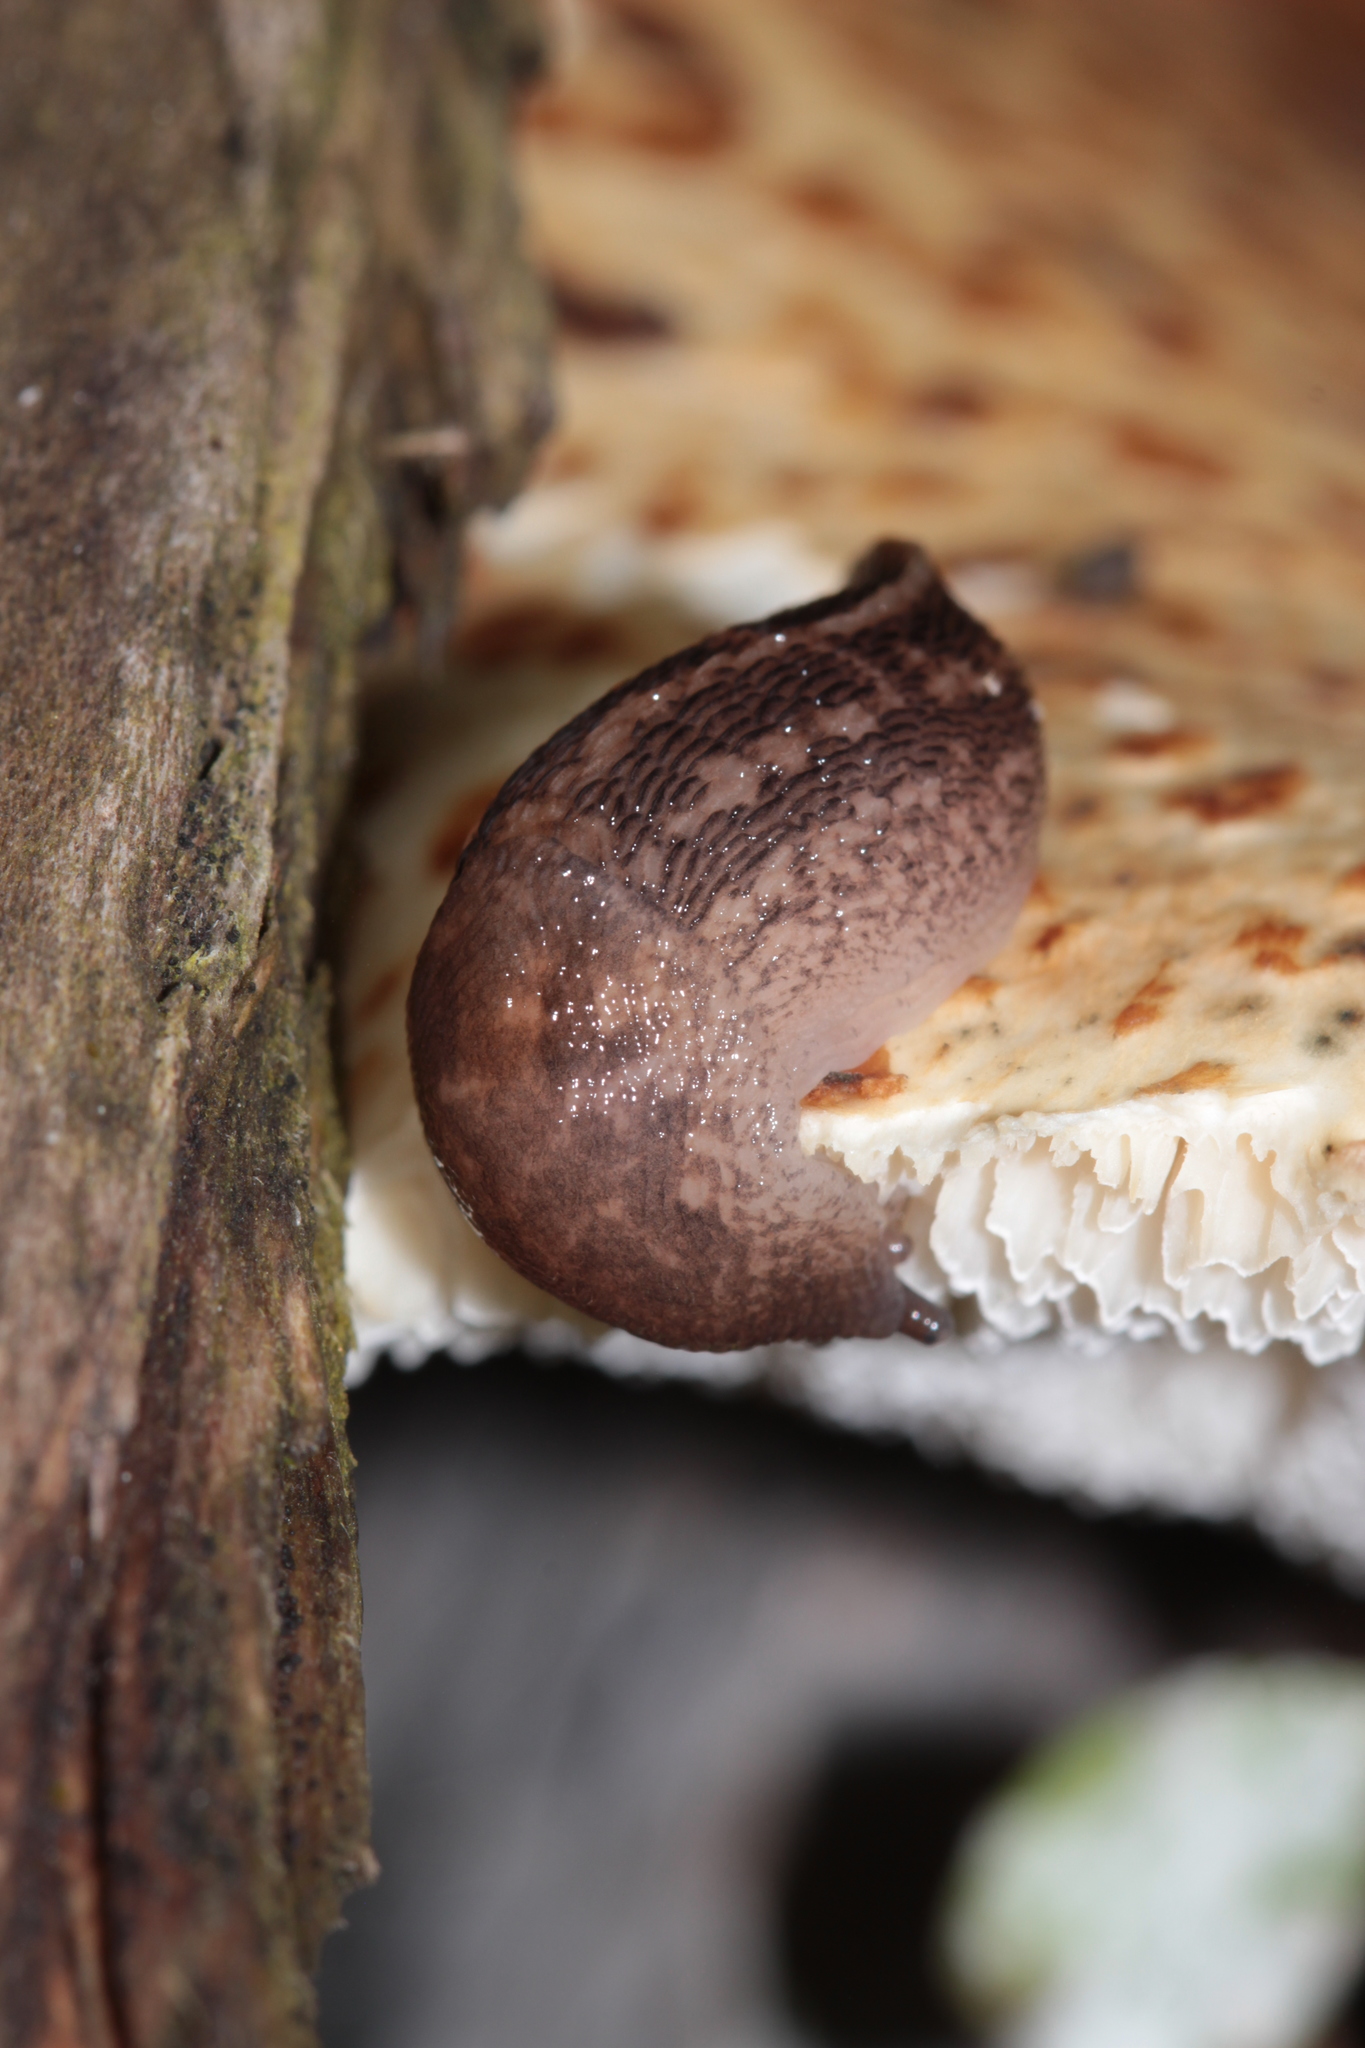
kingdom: Animalia
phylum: Mollusca
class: Gastropoda
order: Stylommatophora
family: Limacidae
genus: Limax
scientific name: Limax maximus
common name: Great grey slug
